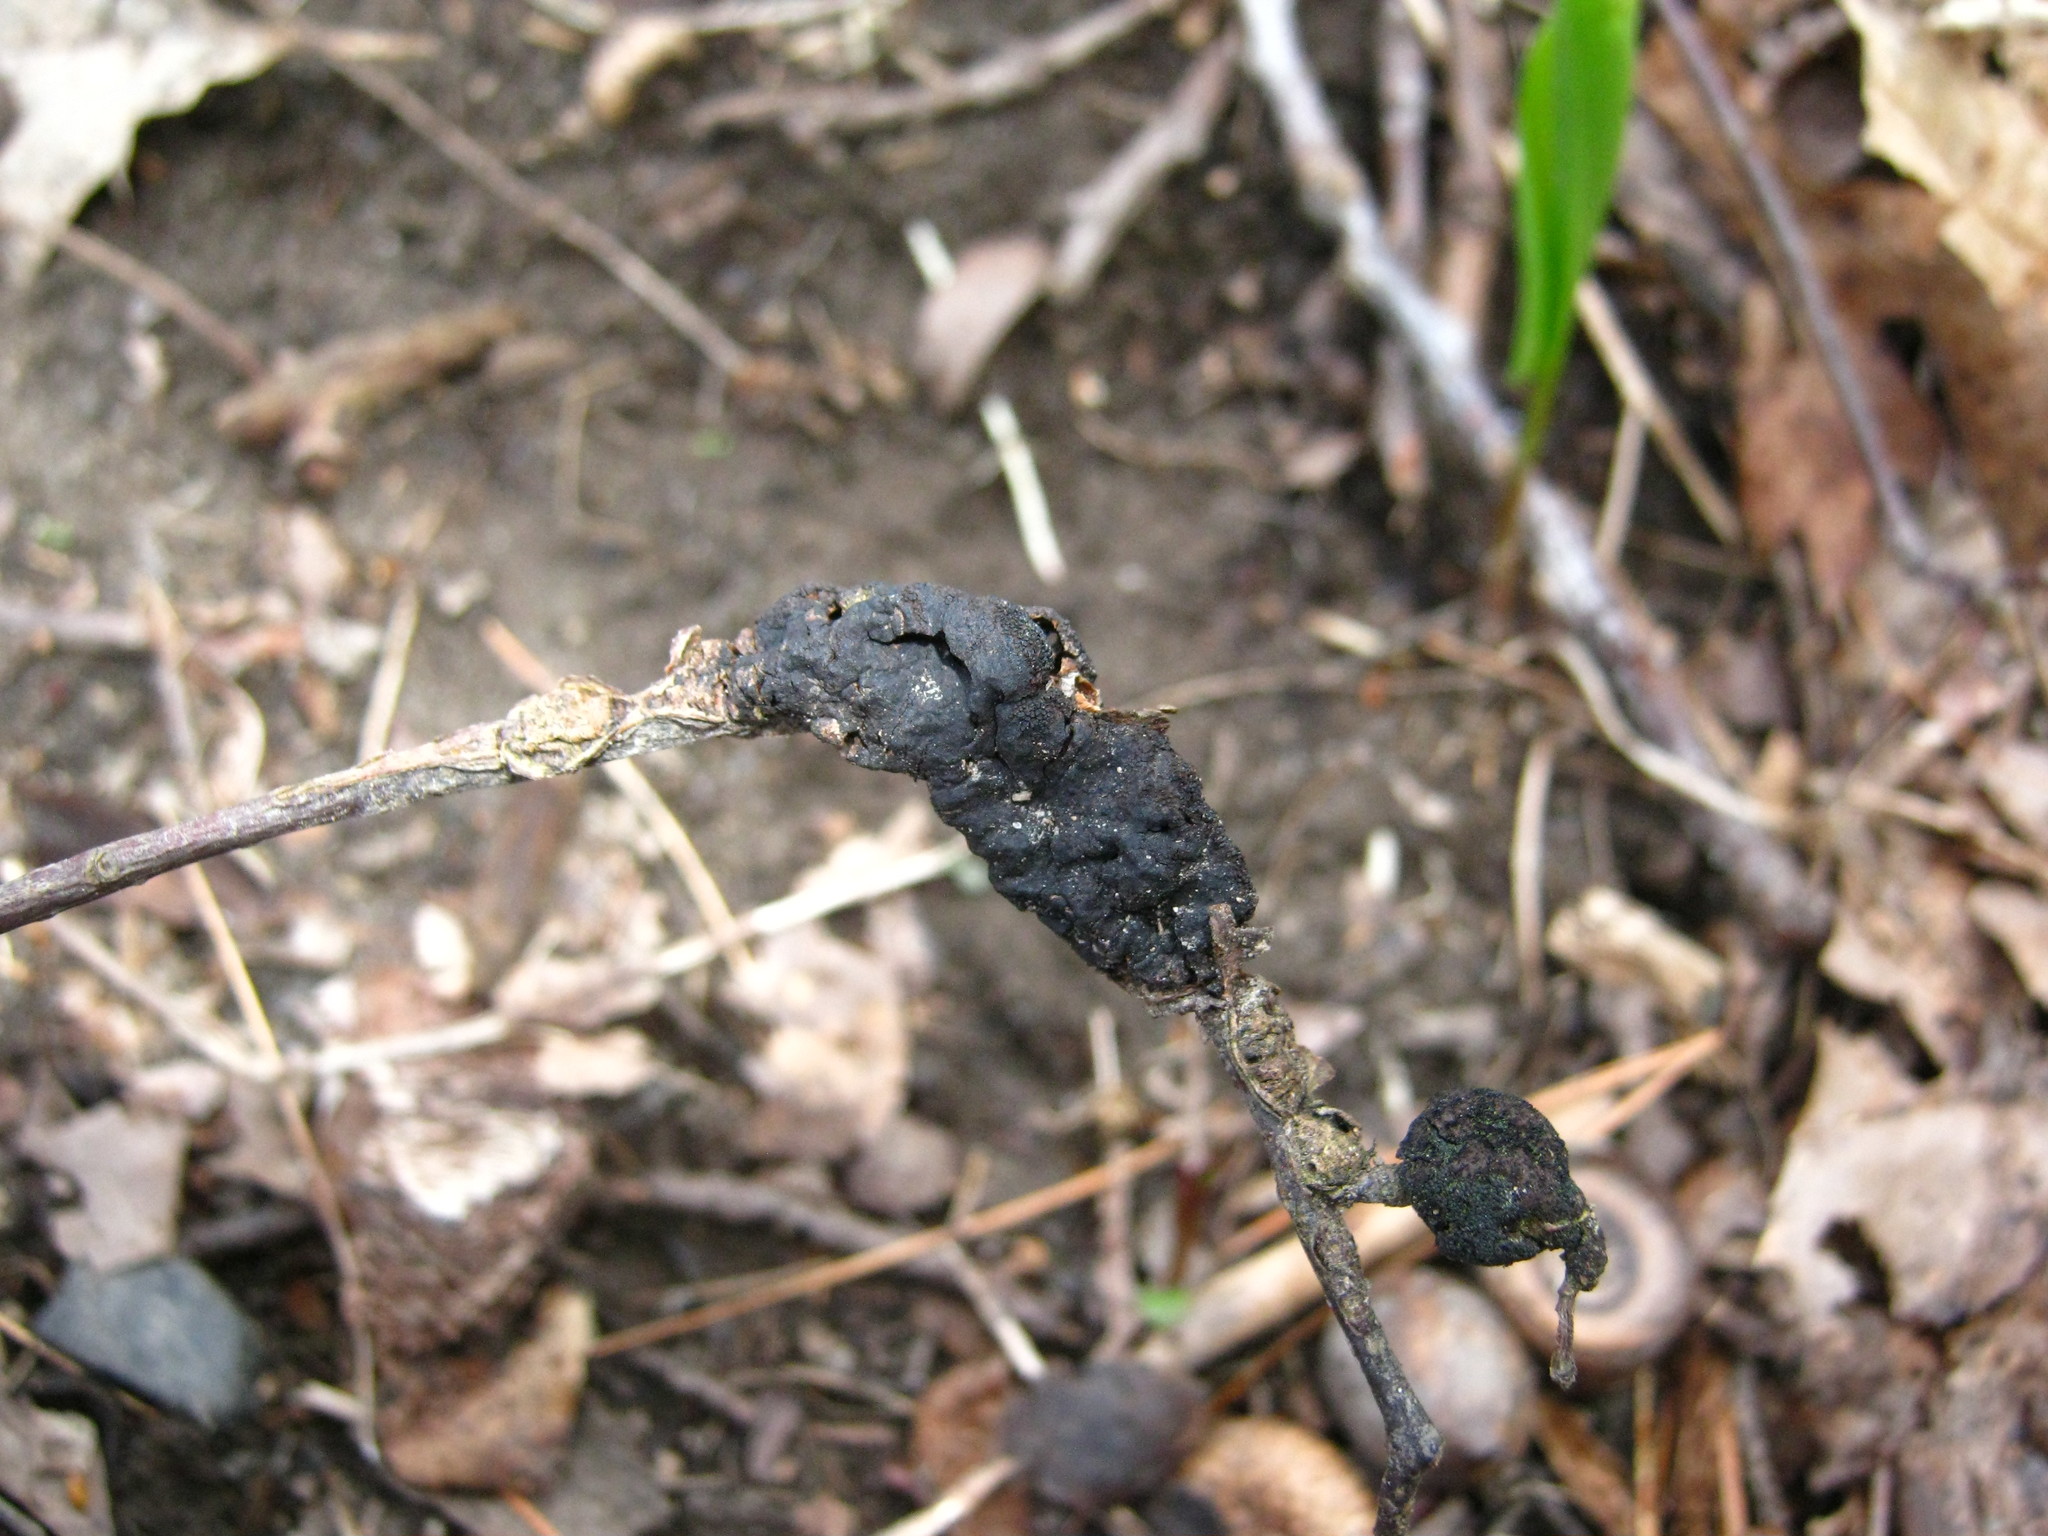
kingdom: Fungi
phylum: Ascomycota
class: Dothideomycetes
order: Venturiales
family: Venturiaceae
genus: Apiosporina
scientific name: Apiosporina morbosa
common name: Black knot
